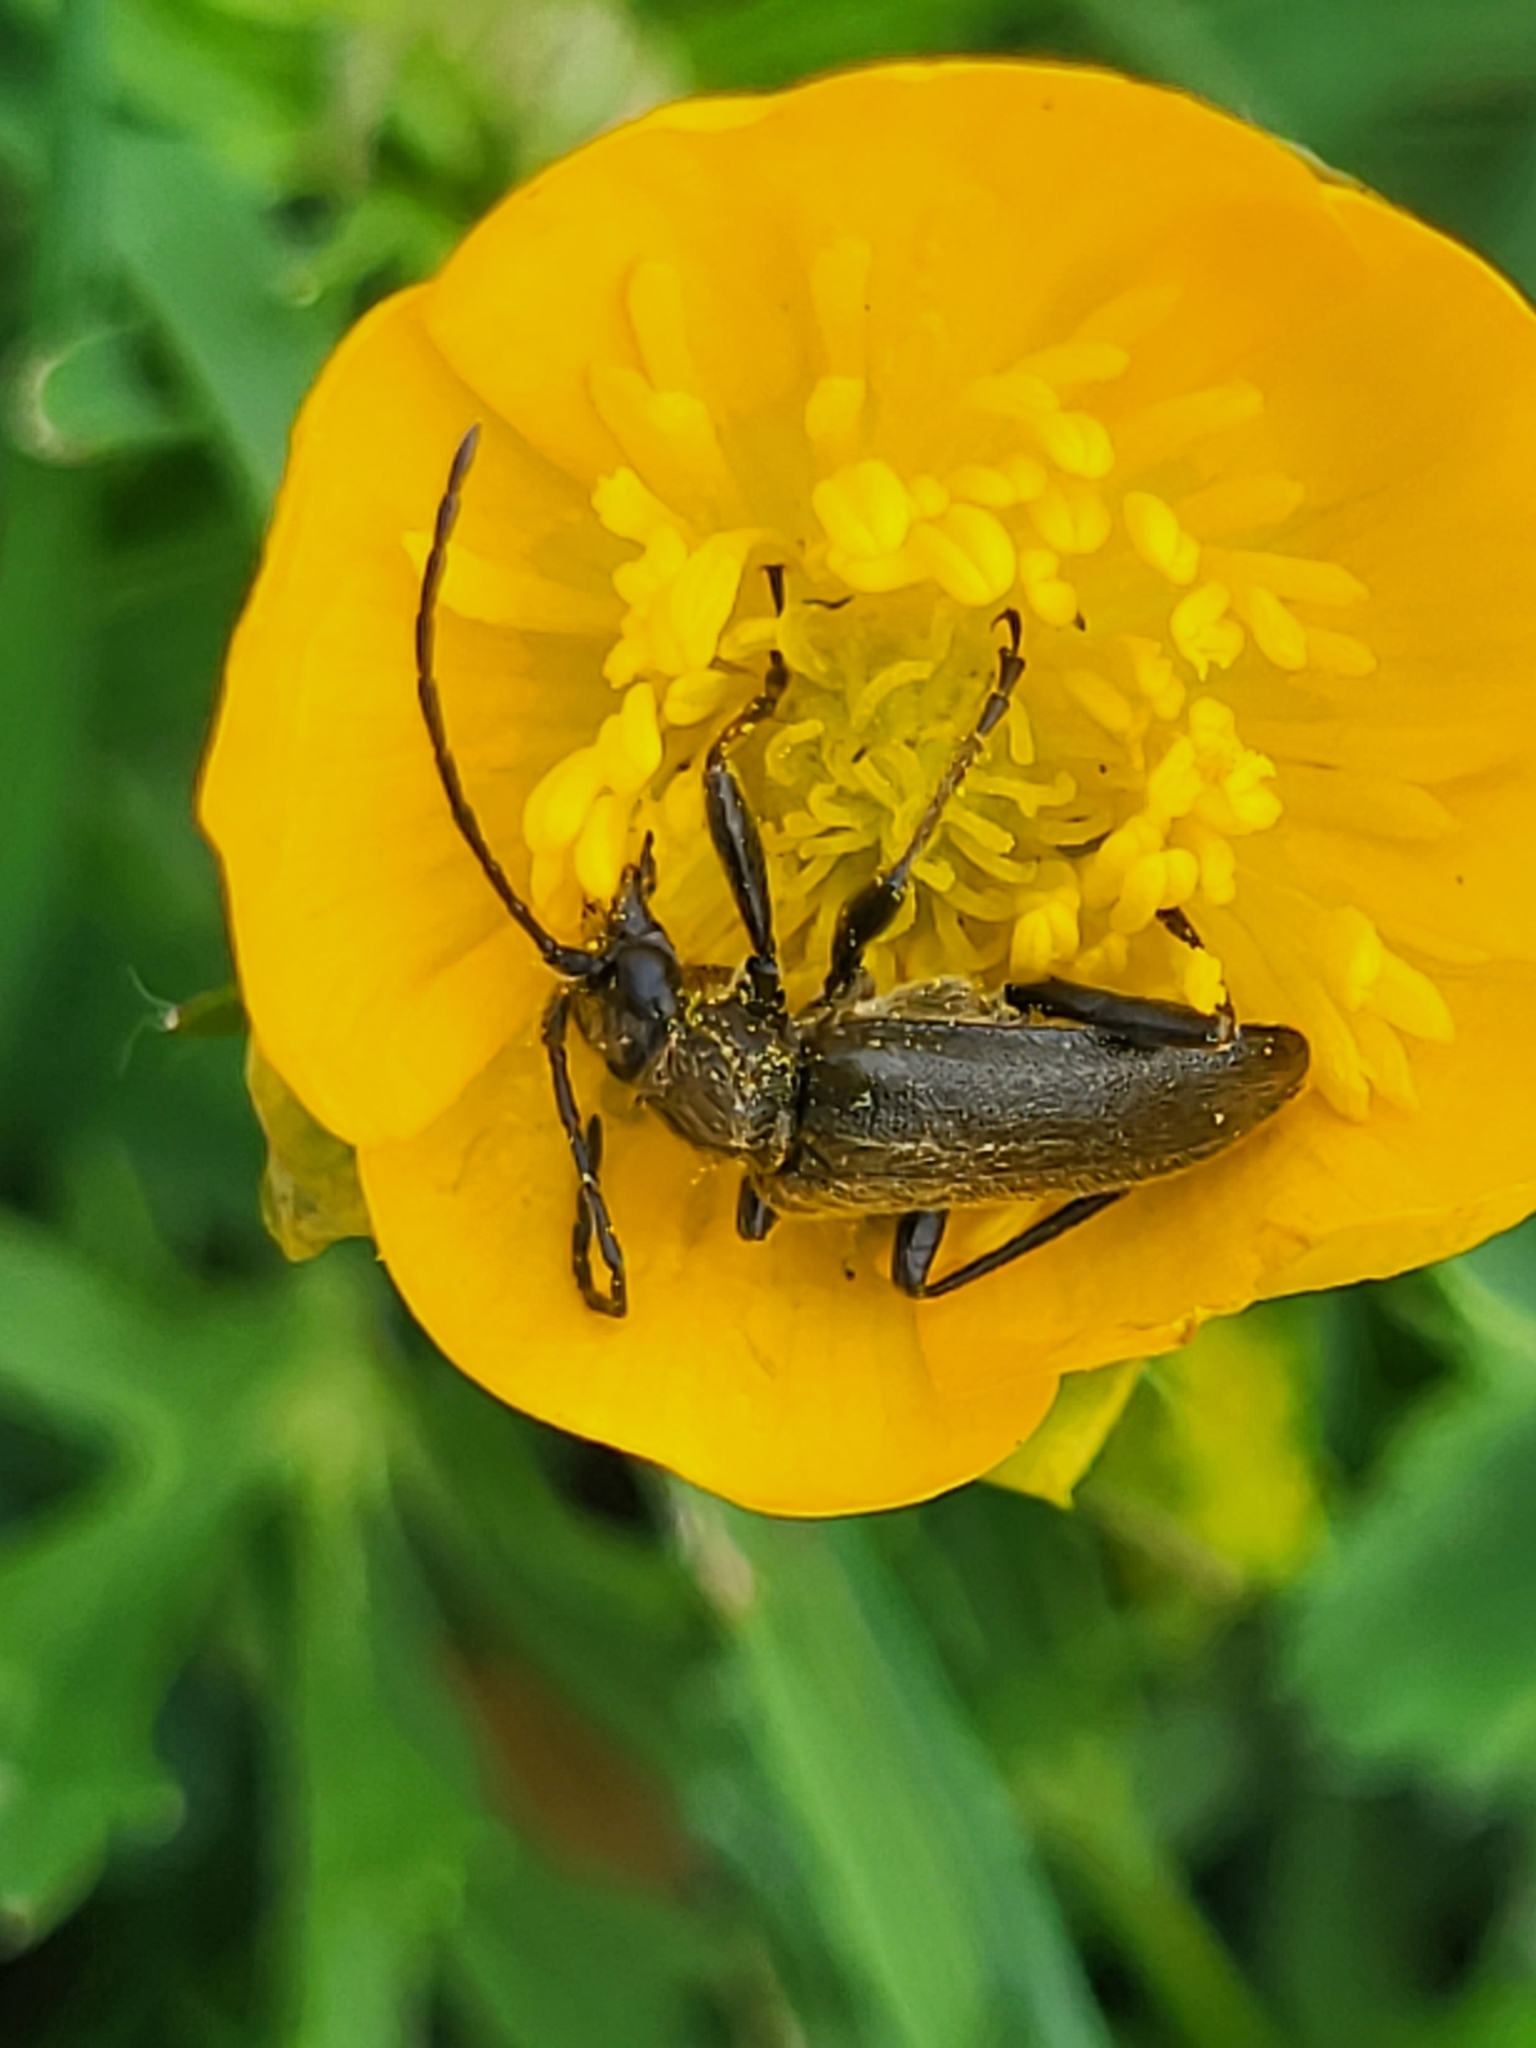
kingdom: Animalia
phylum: Arthropoda
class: Insecta
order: Coleoptera
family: Cerambycidae
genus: Cortodera
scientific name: Cortodera alpina
